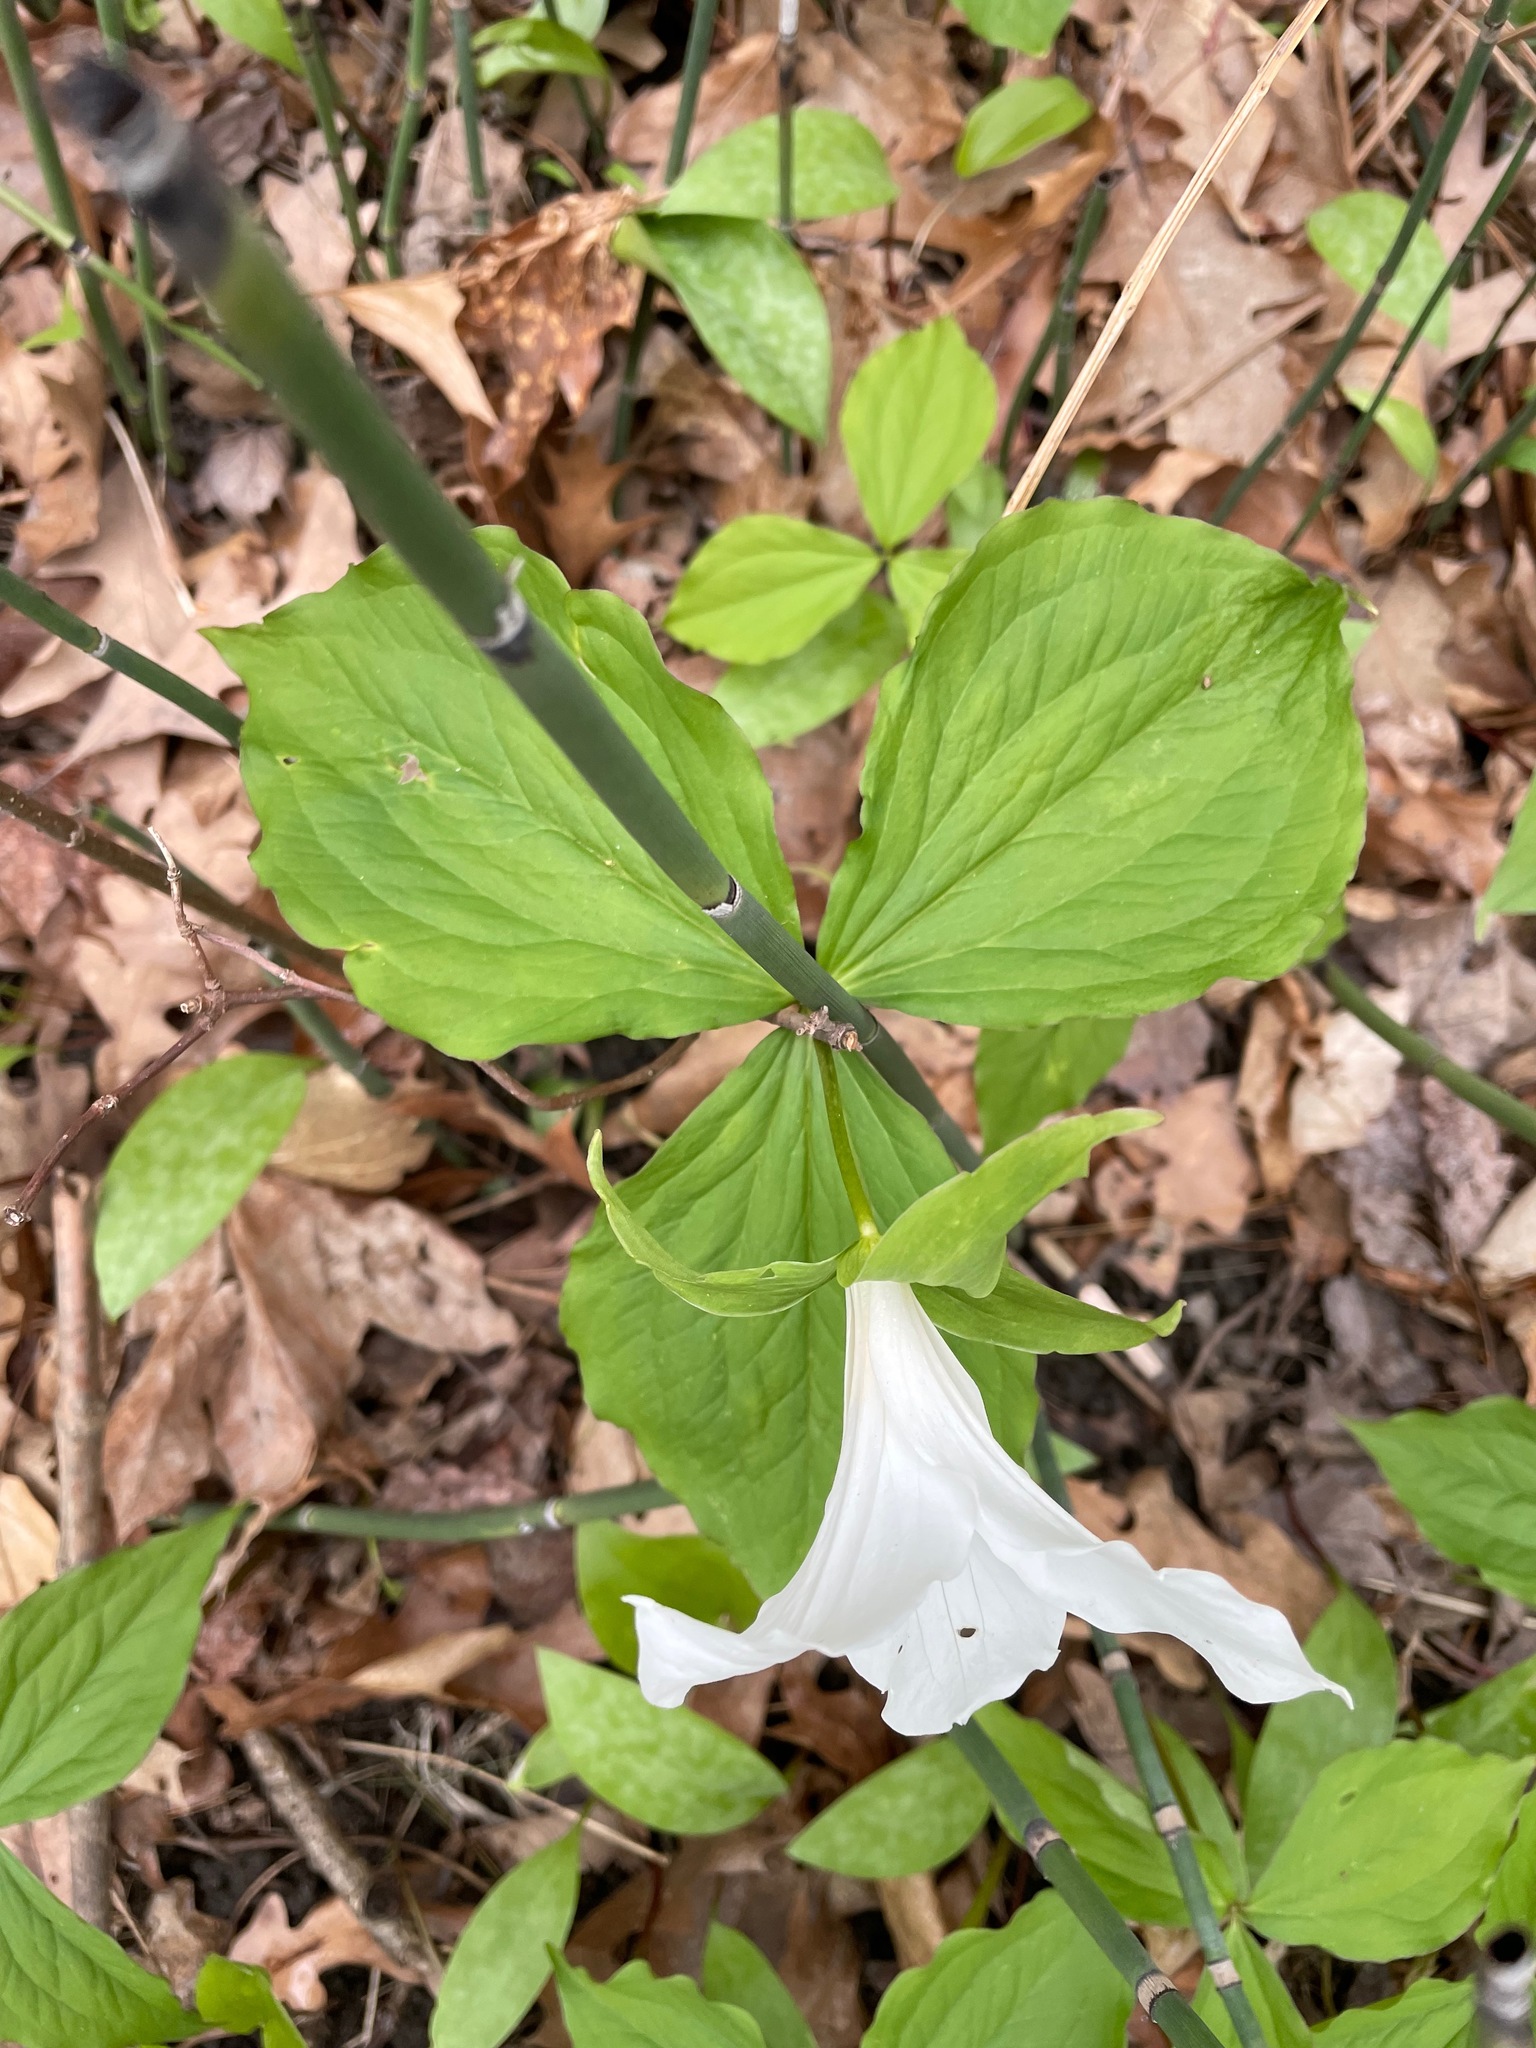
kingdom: Plantae
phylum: Tracheophyta
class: Liliopsida
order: Liliales
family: Melanthiaceae
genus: Trillium
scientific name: Trillium grandiflorum
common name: Great white trillium
